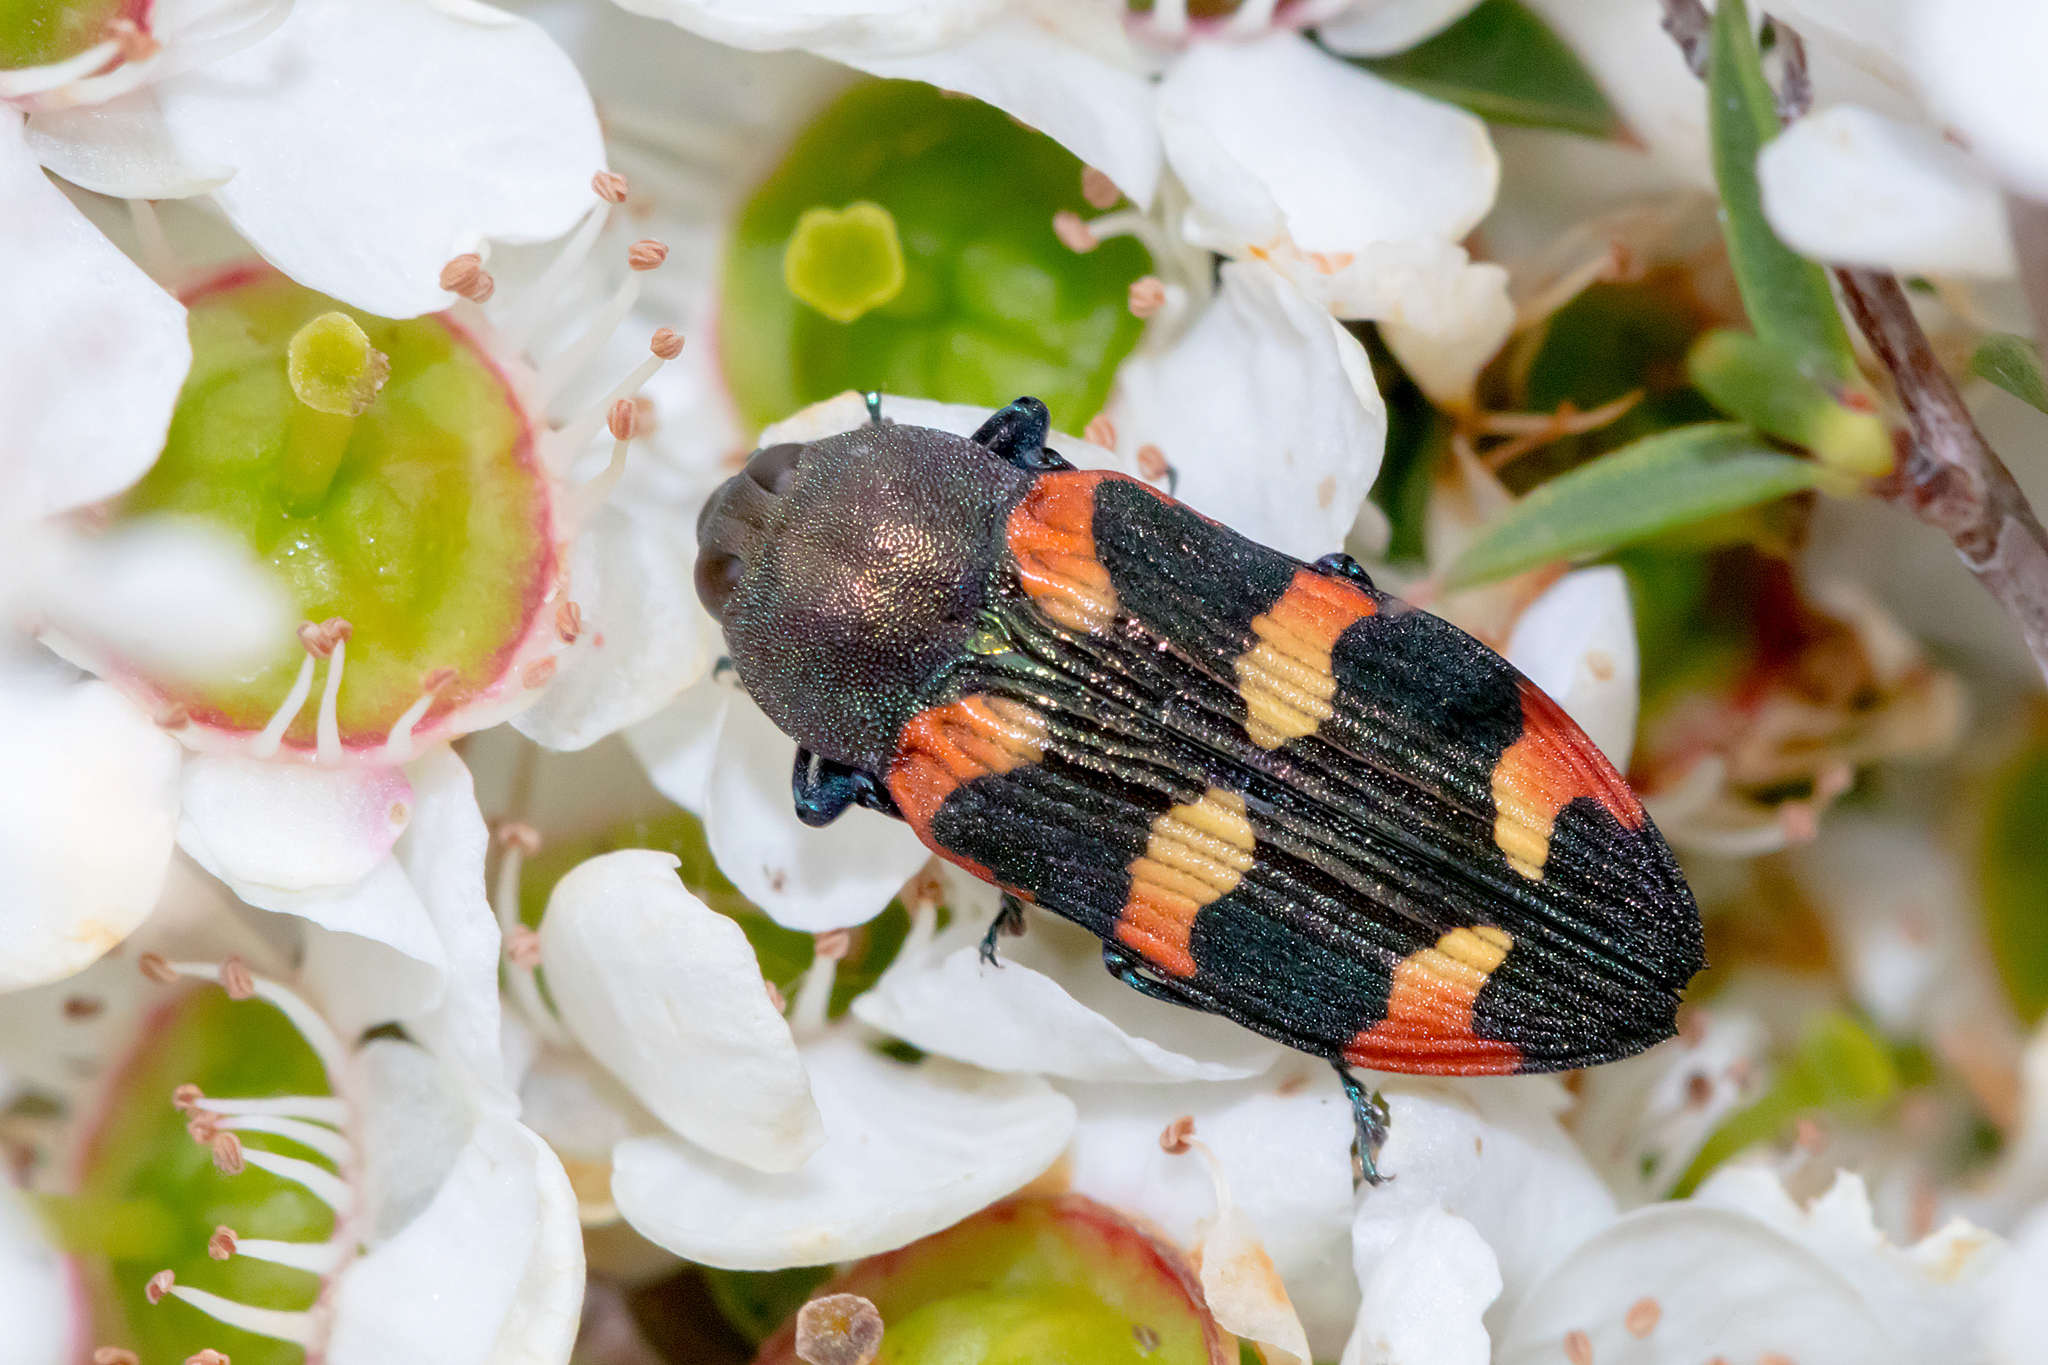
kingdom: Animalia
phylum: Arthropoda
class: Insecta
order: Coleoptera
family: Buprestidae
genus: Castiarina
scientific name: Castiarina sexplagiata
